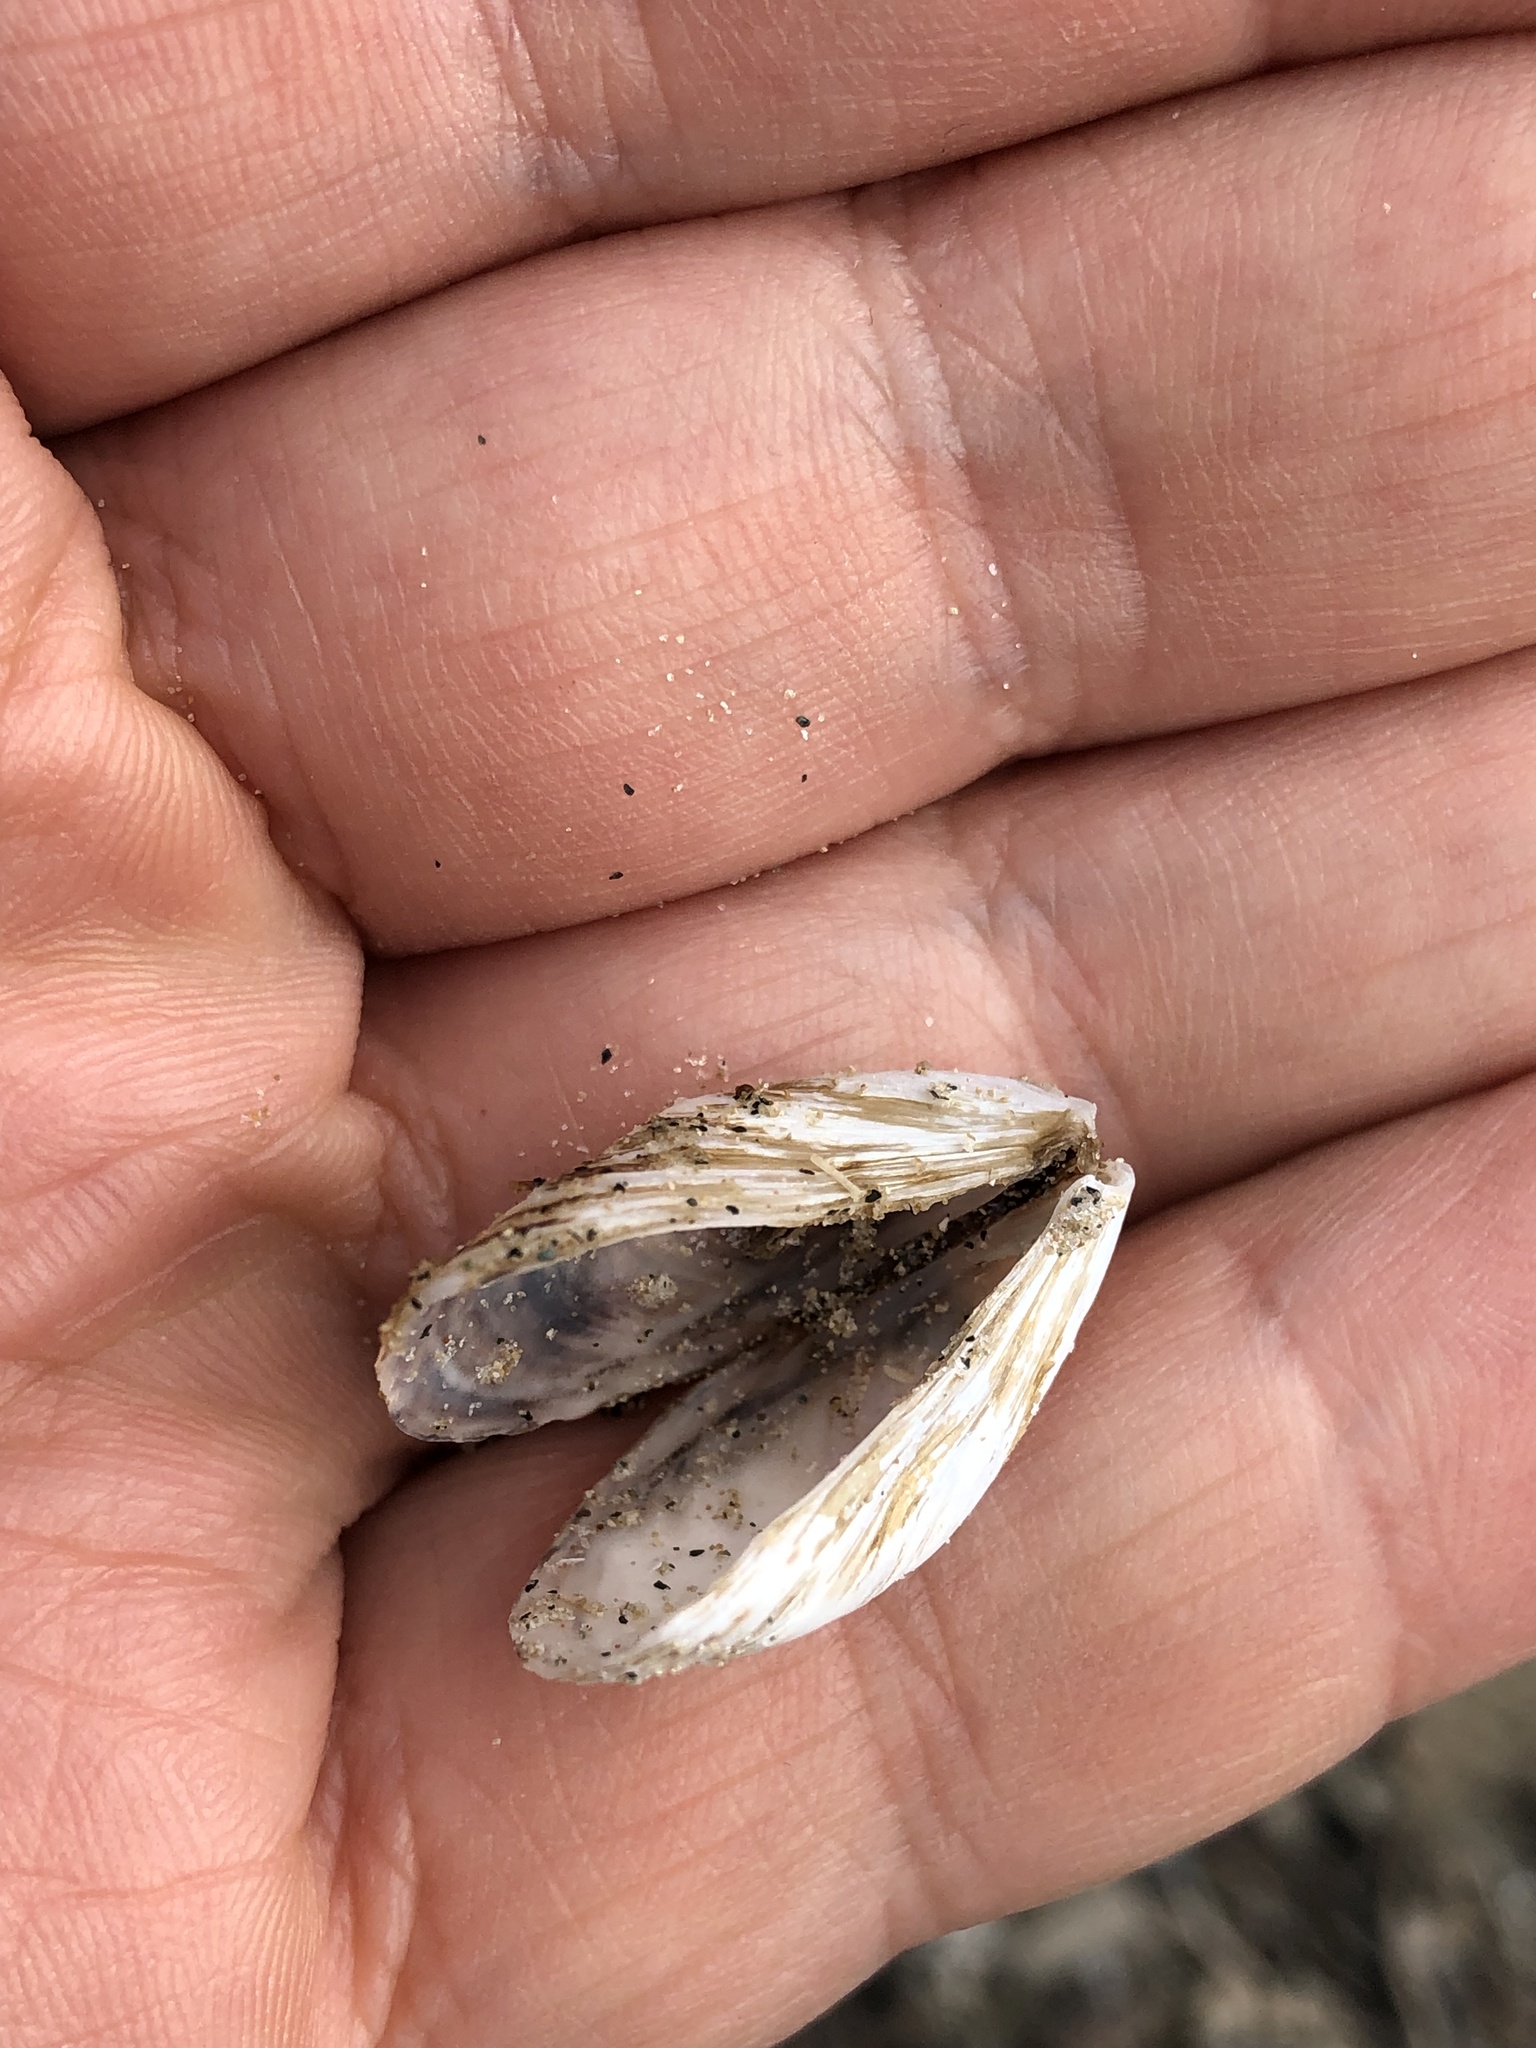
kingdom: Animalia
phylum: Mollusca
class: Bivalvia
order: Myida
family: Dreissenidae
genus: Dreissena
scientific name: Dreissena bugensis
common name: Quagga mussel
